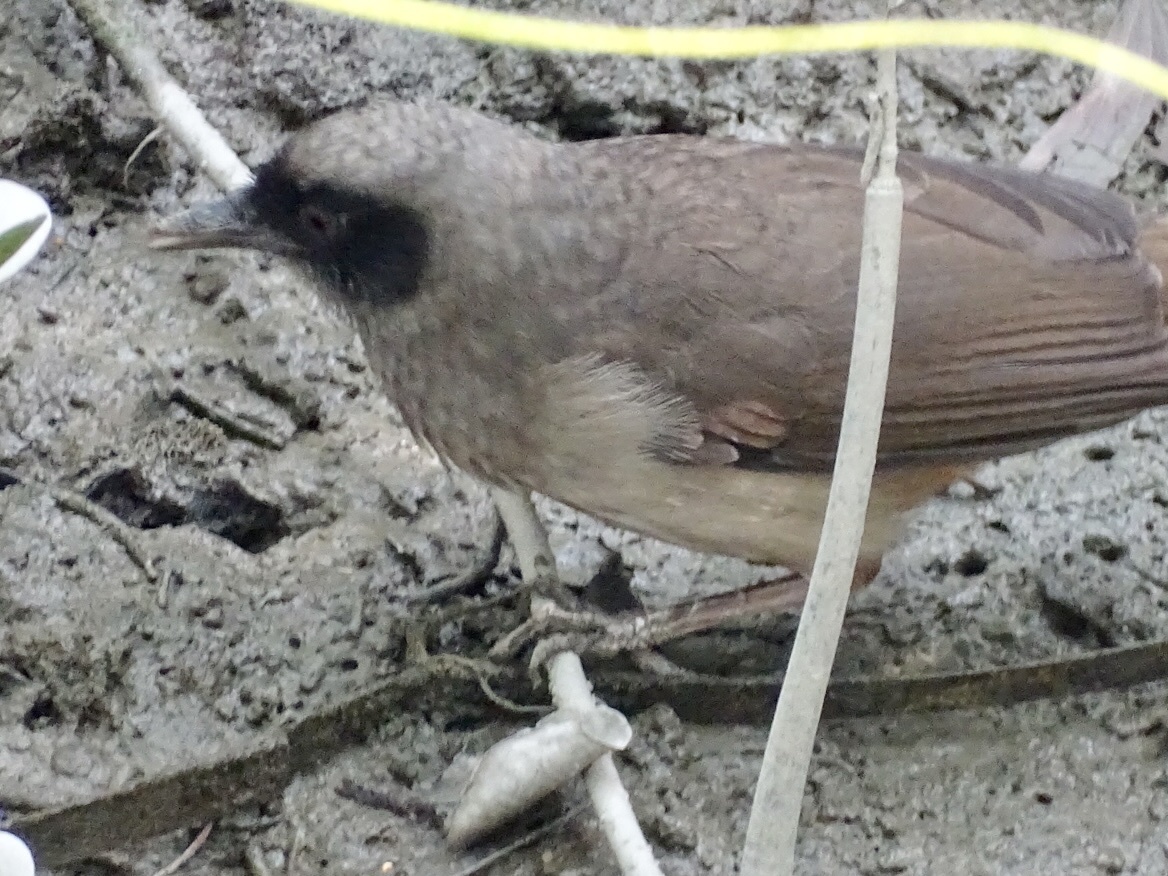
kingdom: Animalia
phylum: Chordata
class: Aves
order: Passeriformes
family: Leiothrichidae
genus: Garrulax
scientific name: Garrulax perspicillatus
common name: Masked laughingthrush
